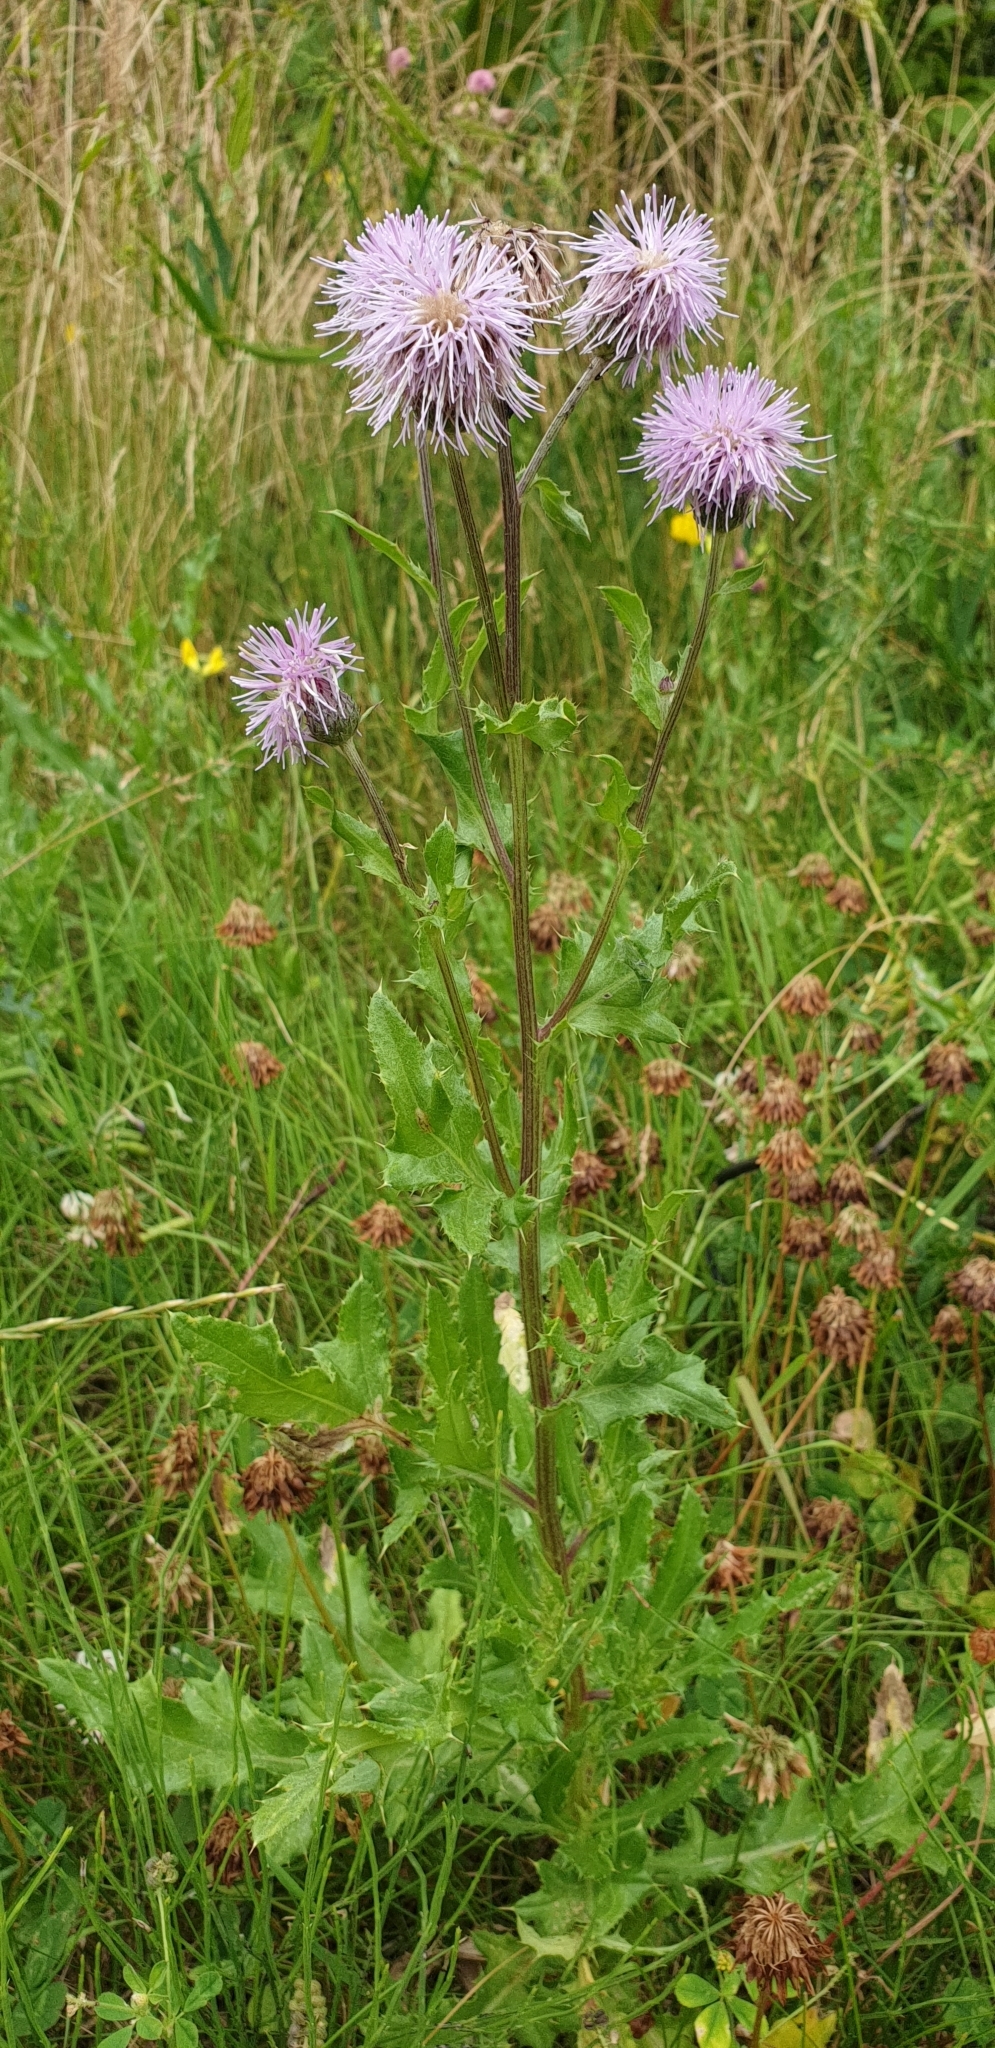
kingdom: Plantae
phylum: Tracheophyta
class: Magnoliopsida
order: Asterales
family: Asteraceae
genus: Cirsium
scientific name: Cirsium arvense
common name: Creeping thistle
